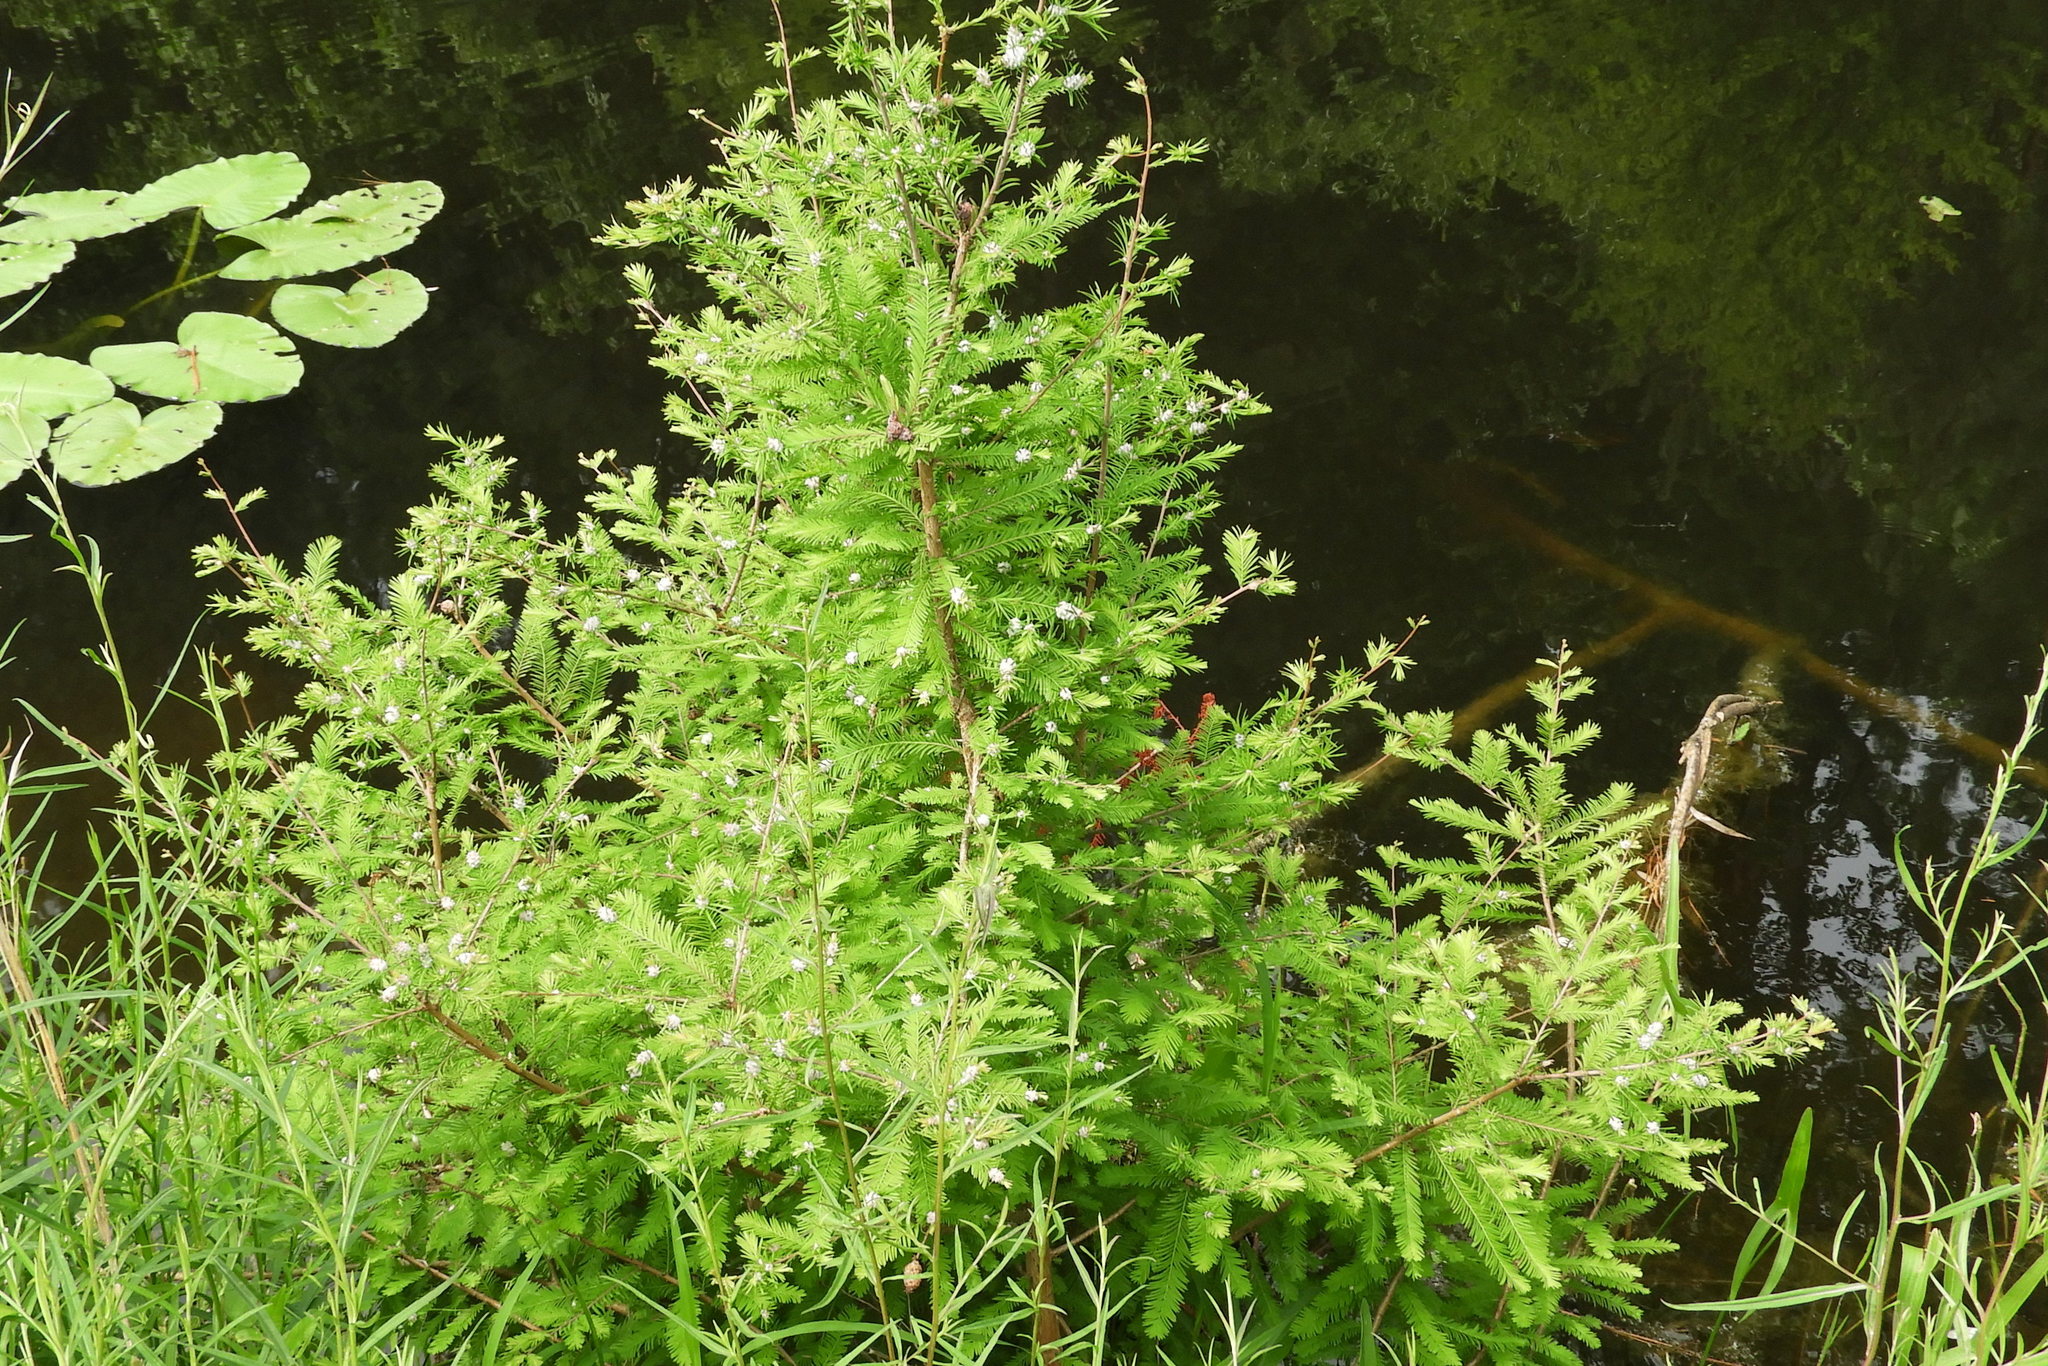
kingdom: Animalia
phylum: Arthropoda
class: Insecta
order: Diptera
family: Cecidomyiidae
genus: Taxodiomyia
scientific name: Taxodiomyia cupressiananassa
